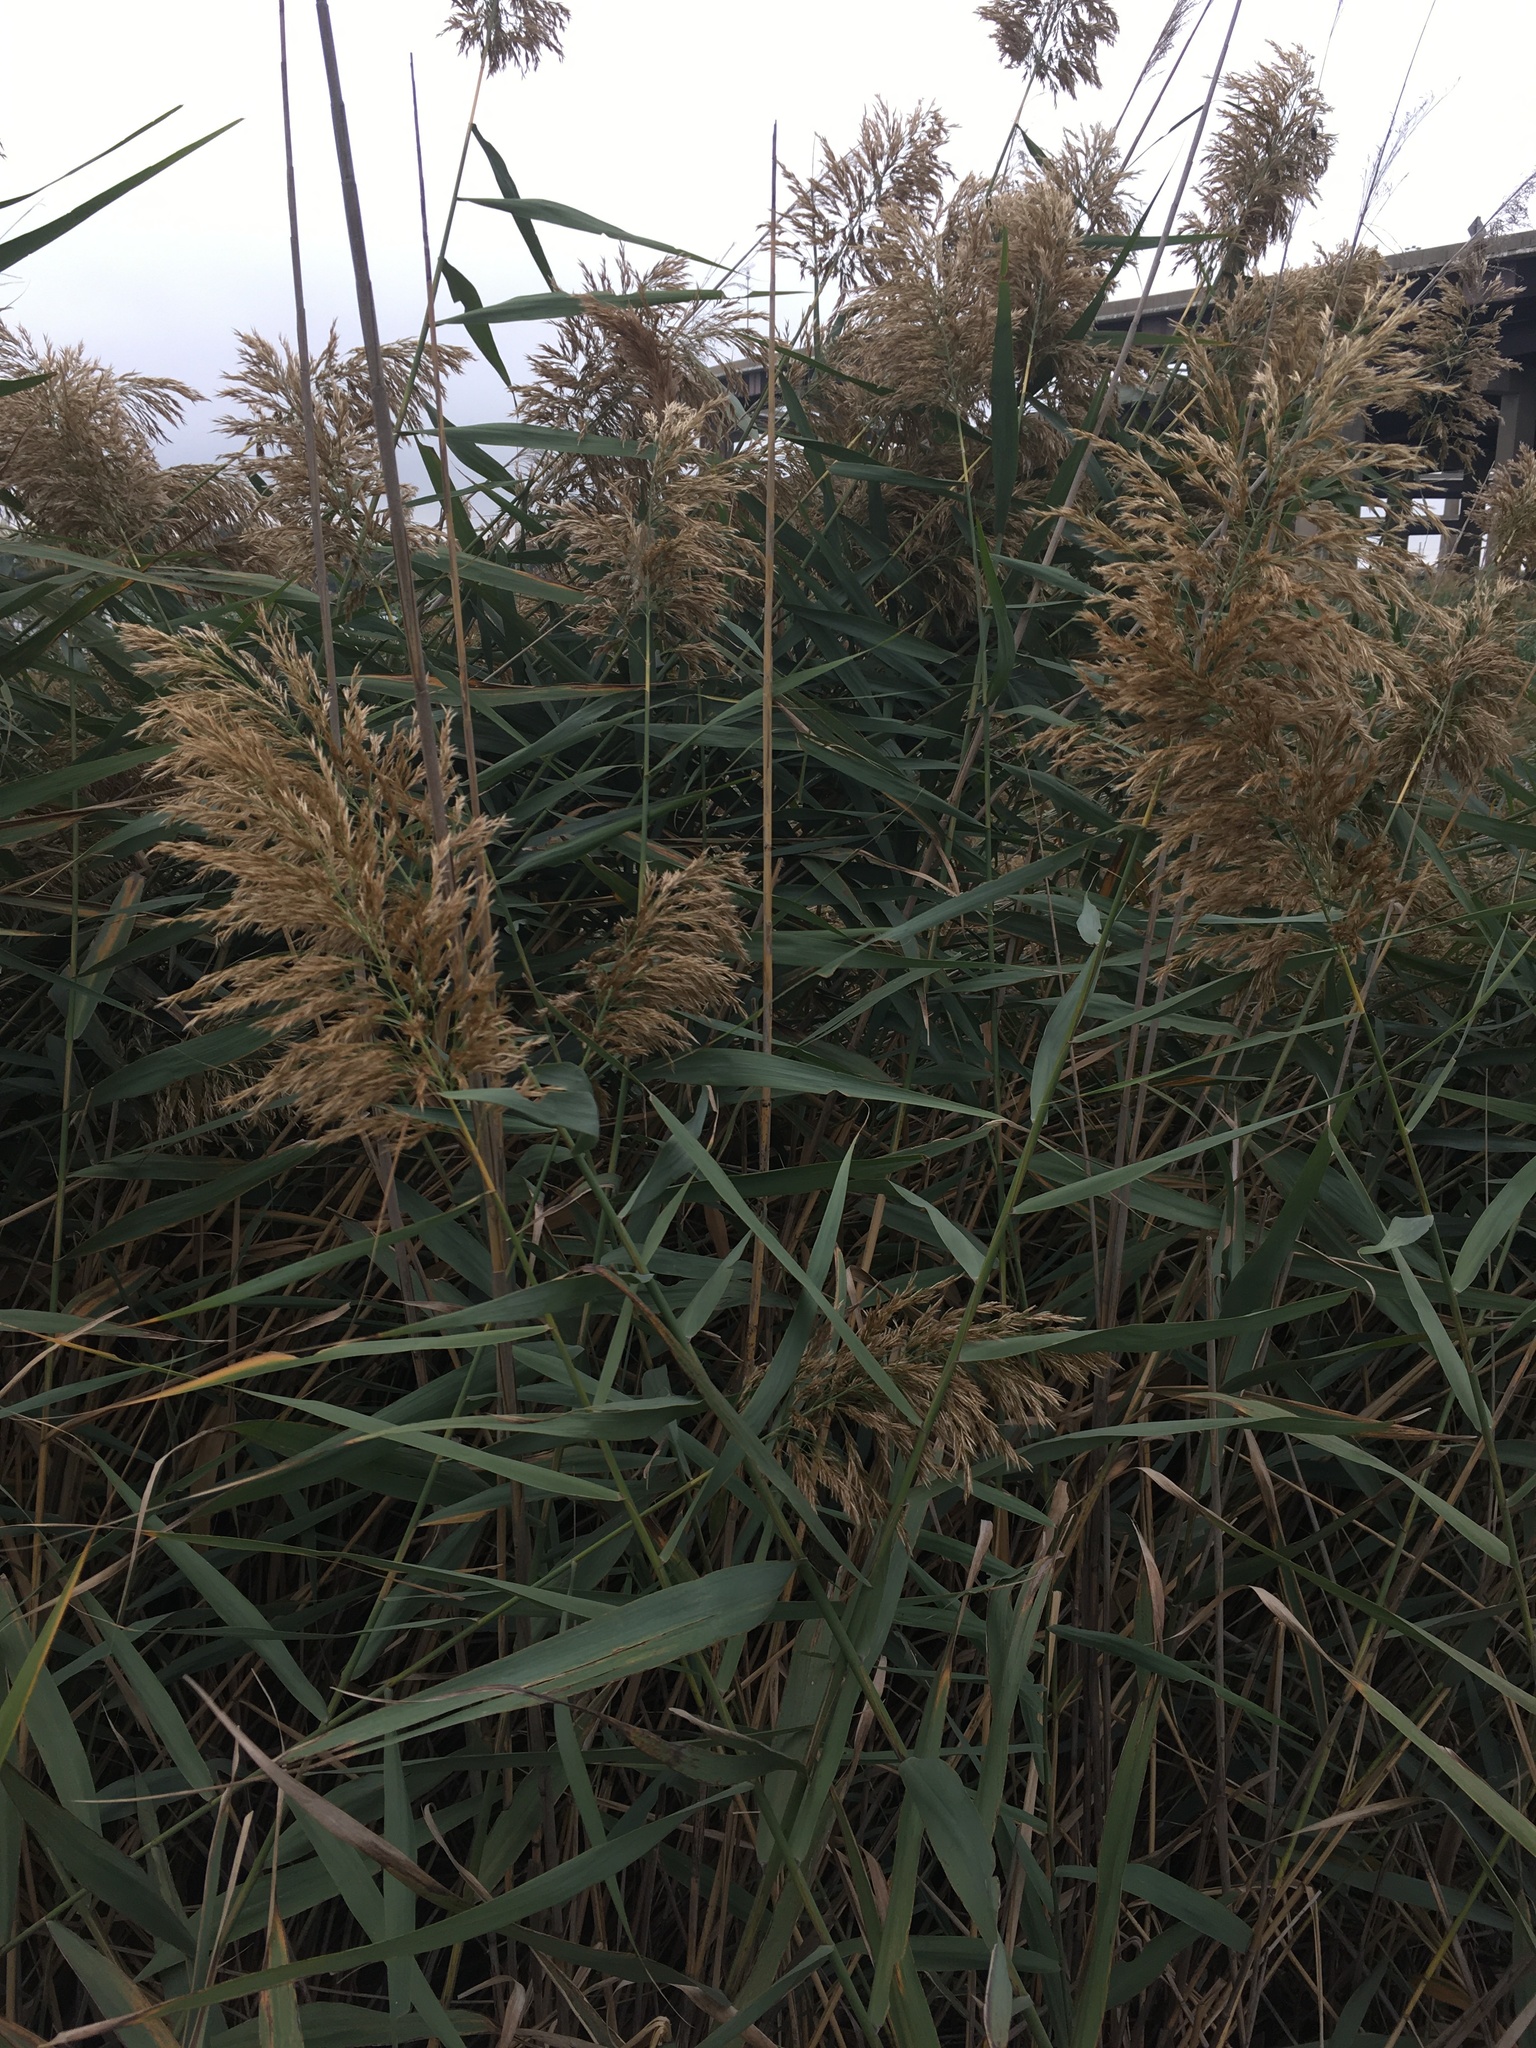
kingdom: Plantae
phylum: Tracheophyta
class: Liliopsida
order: Poales
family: Poaceae
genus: Phragmites
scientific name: Phragmites australis
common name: Common reed
